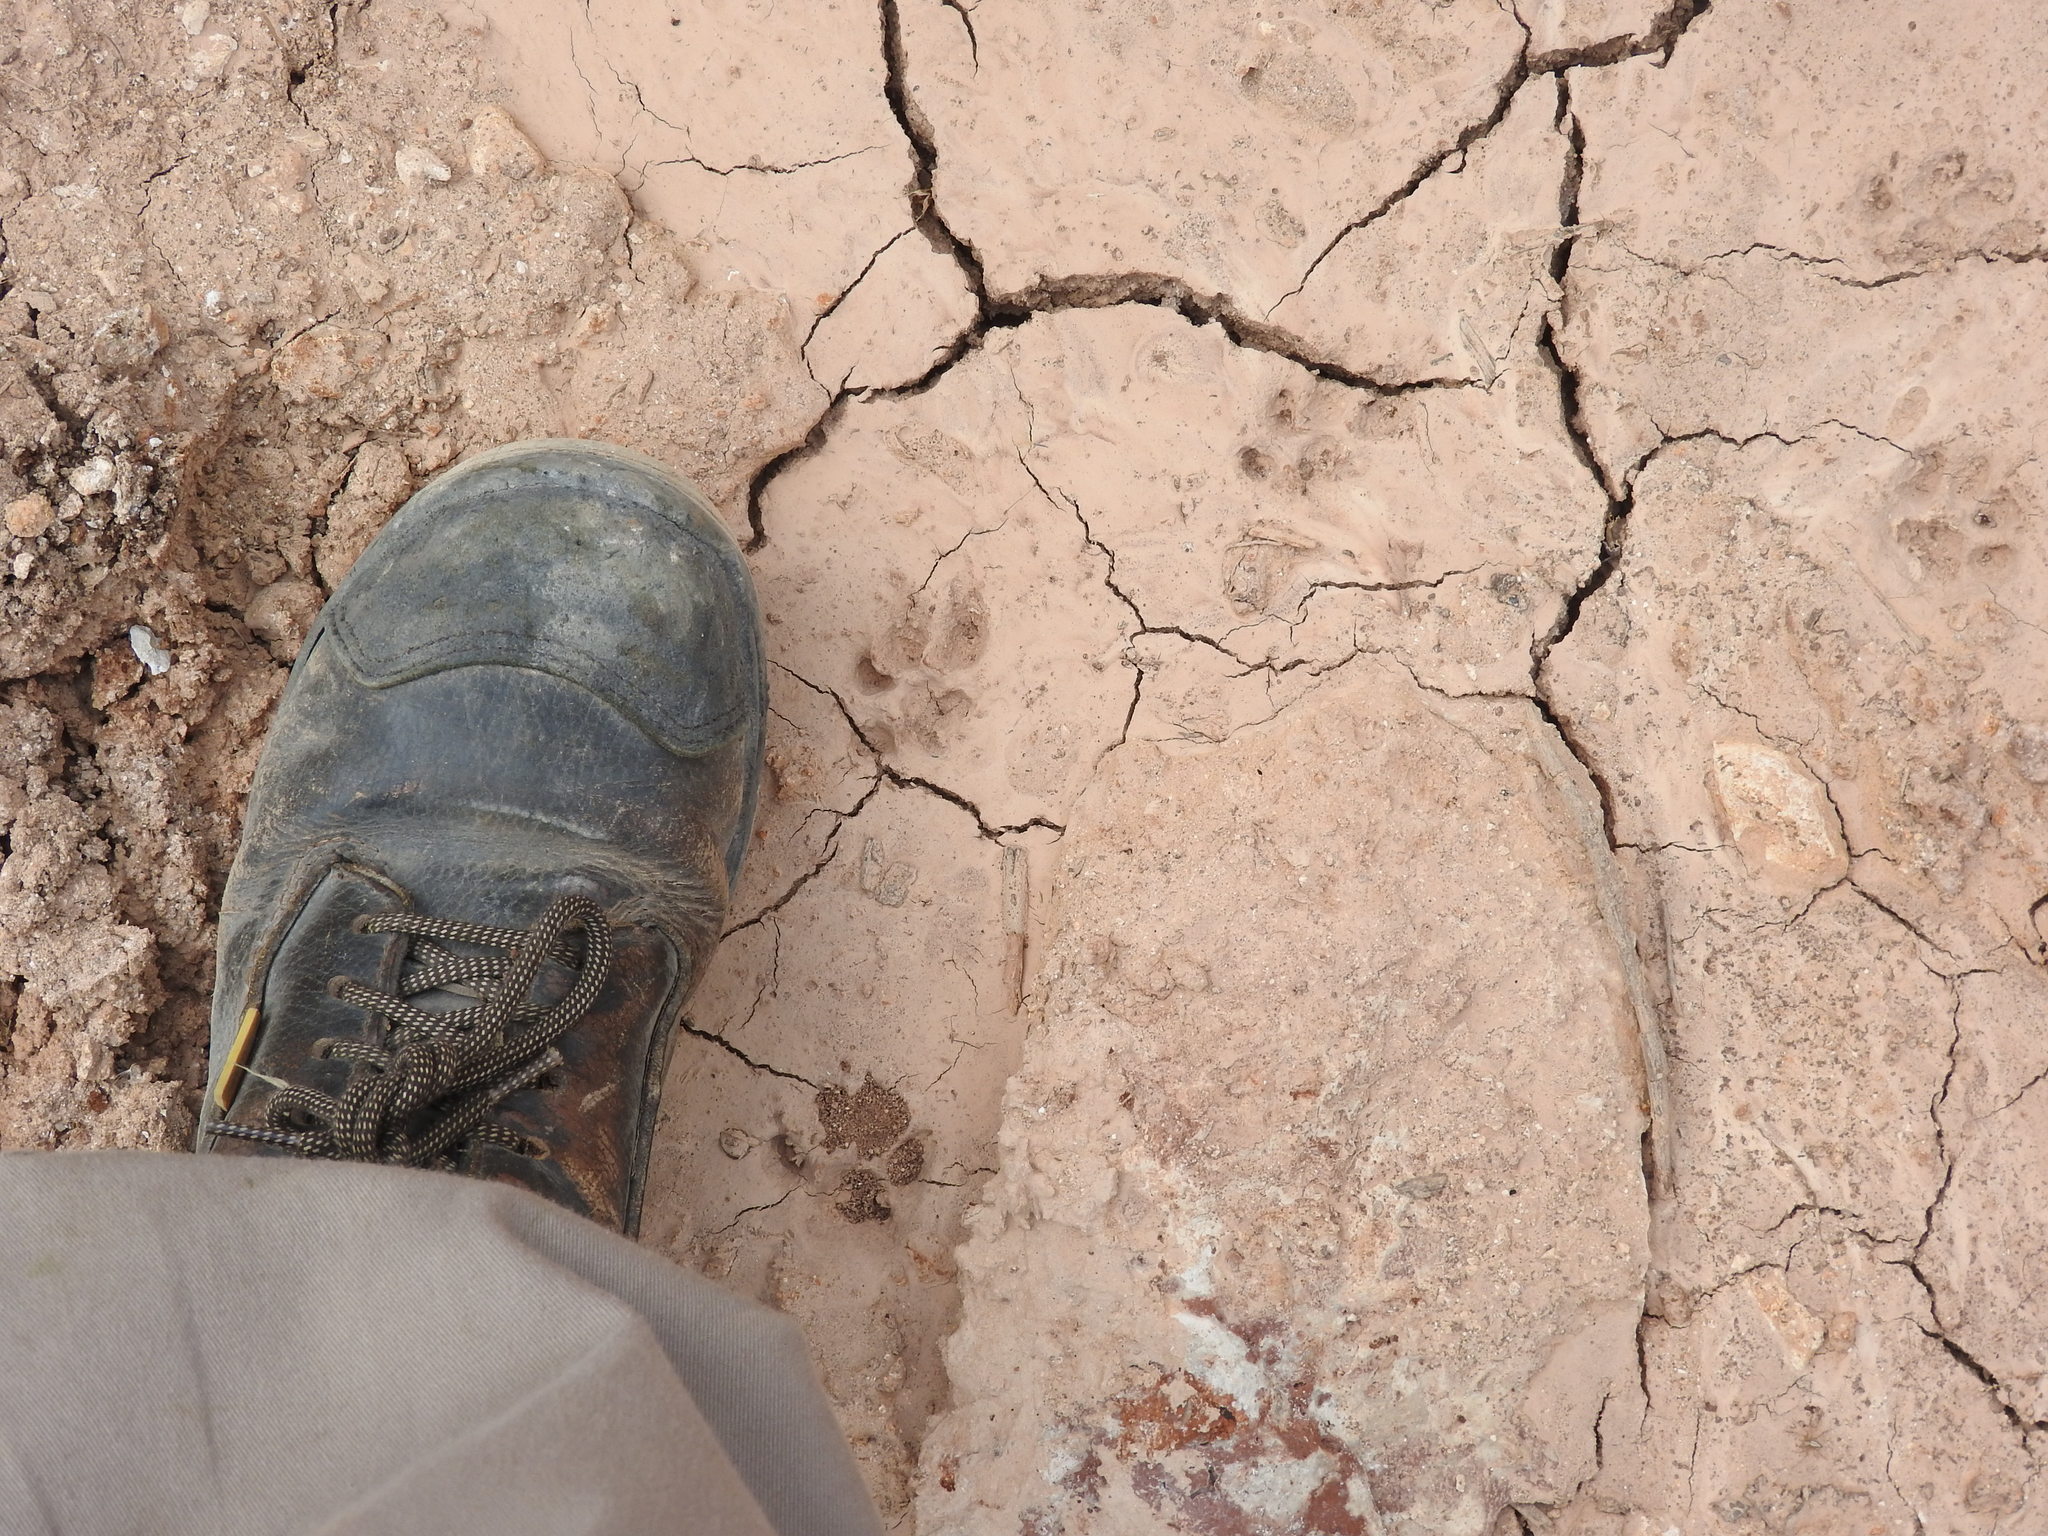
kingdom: Animalia
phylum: Chordata
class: Mammalia
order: Carnivora
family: Canidae
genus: Urocyon
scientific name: Urocyon cinereoargenteus
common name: Gray fox
